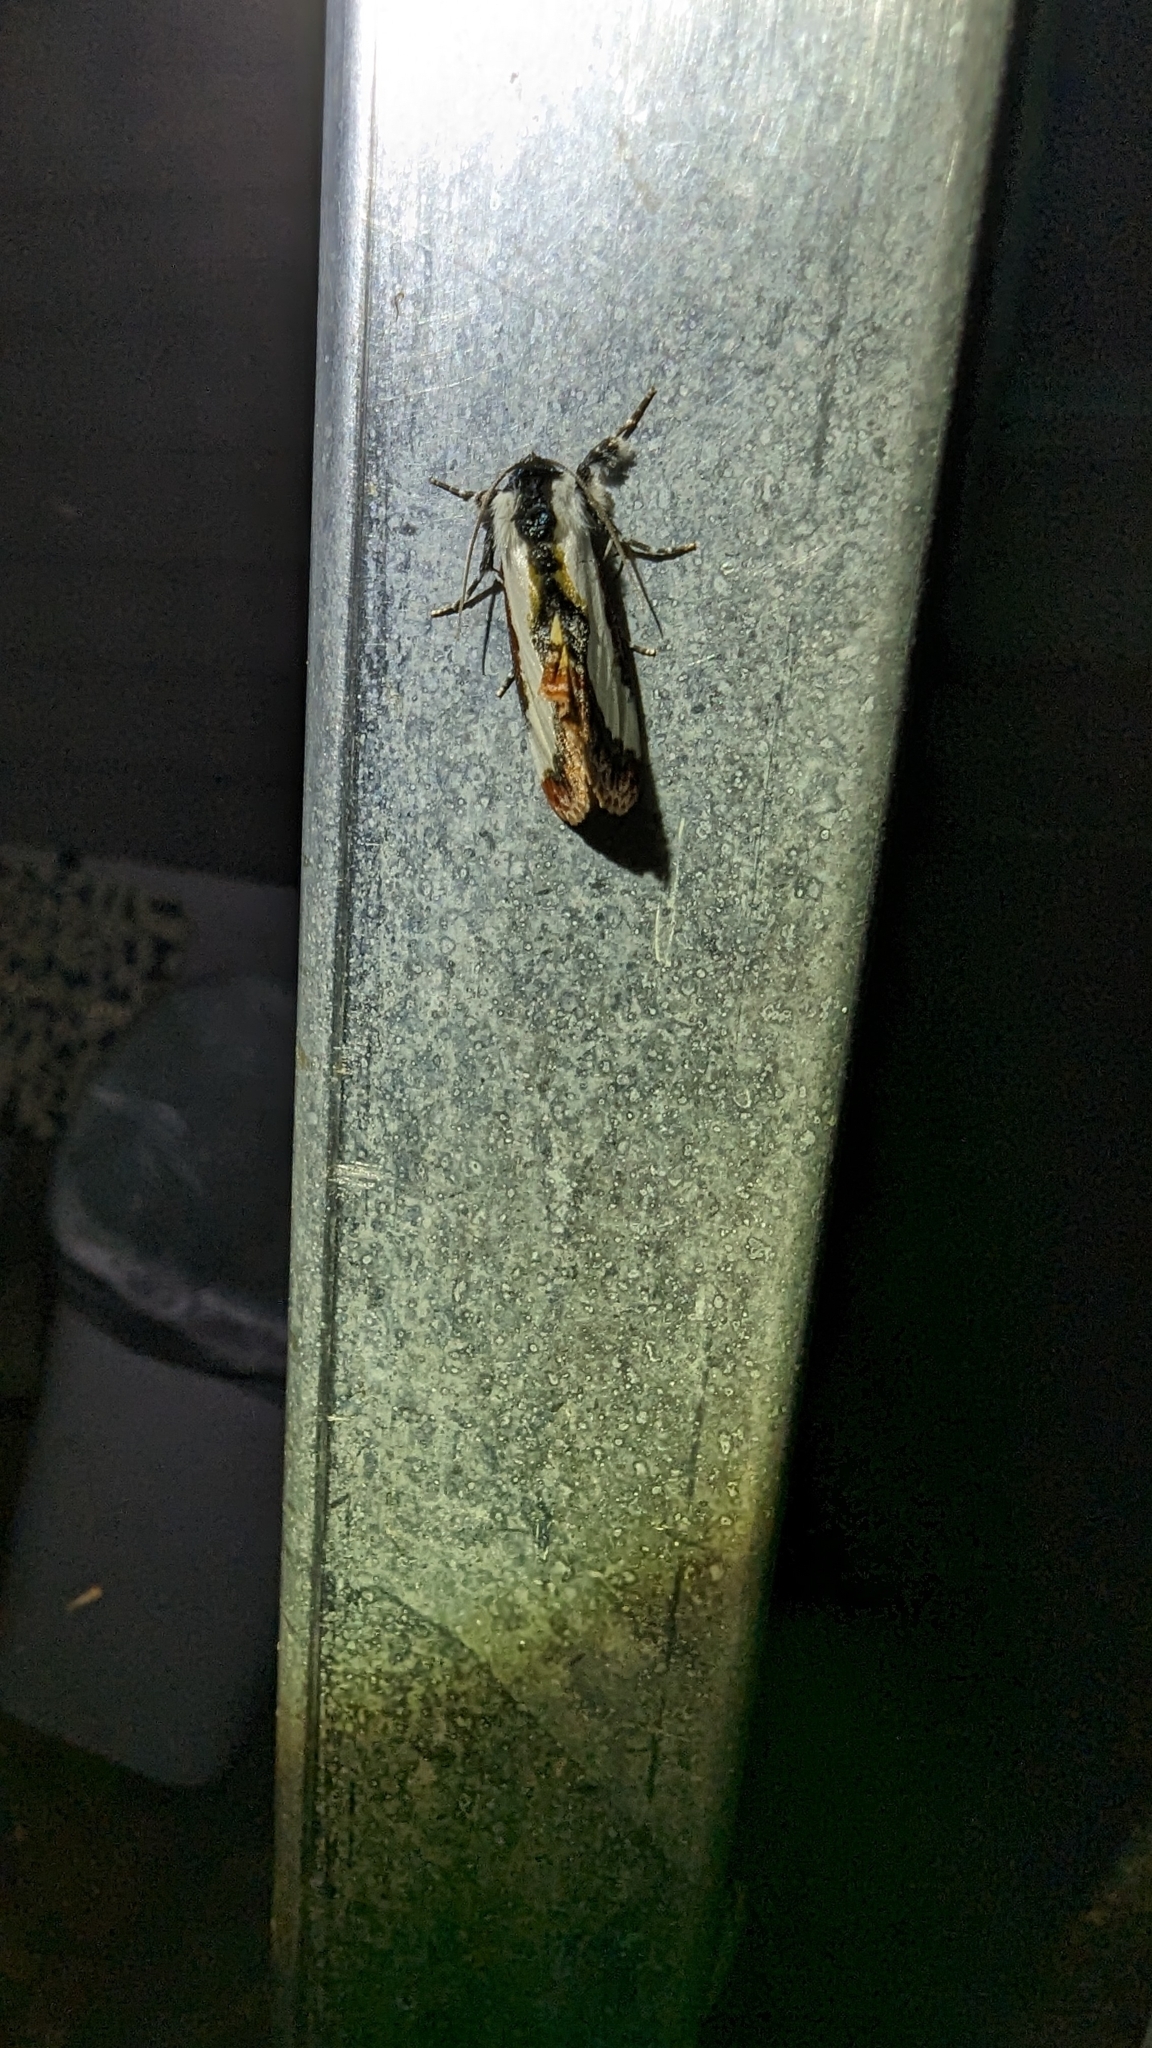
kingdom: Animalia
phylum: Arthropoda
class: Insecta
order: Lepidoptera
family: Noctuidae
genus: Eudryas
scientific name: Eudryas unio
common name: Pearly wood-nymph
